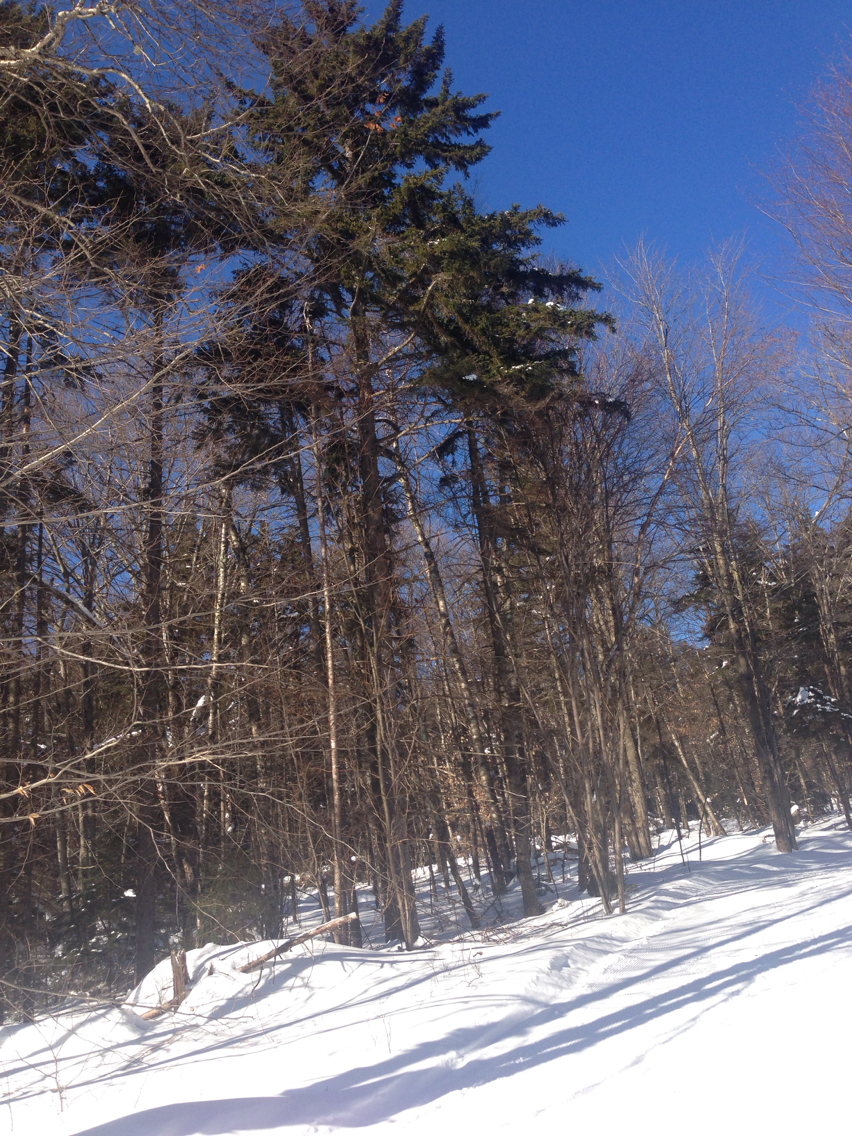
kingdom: Plantae
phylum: Tracheophyta
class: Pinopsida
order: Pinales
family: Pinaceae
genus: Picea
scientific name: Picea rubens
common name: Red spruce
